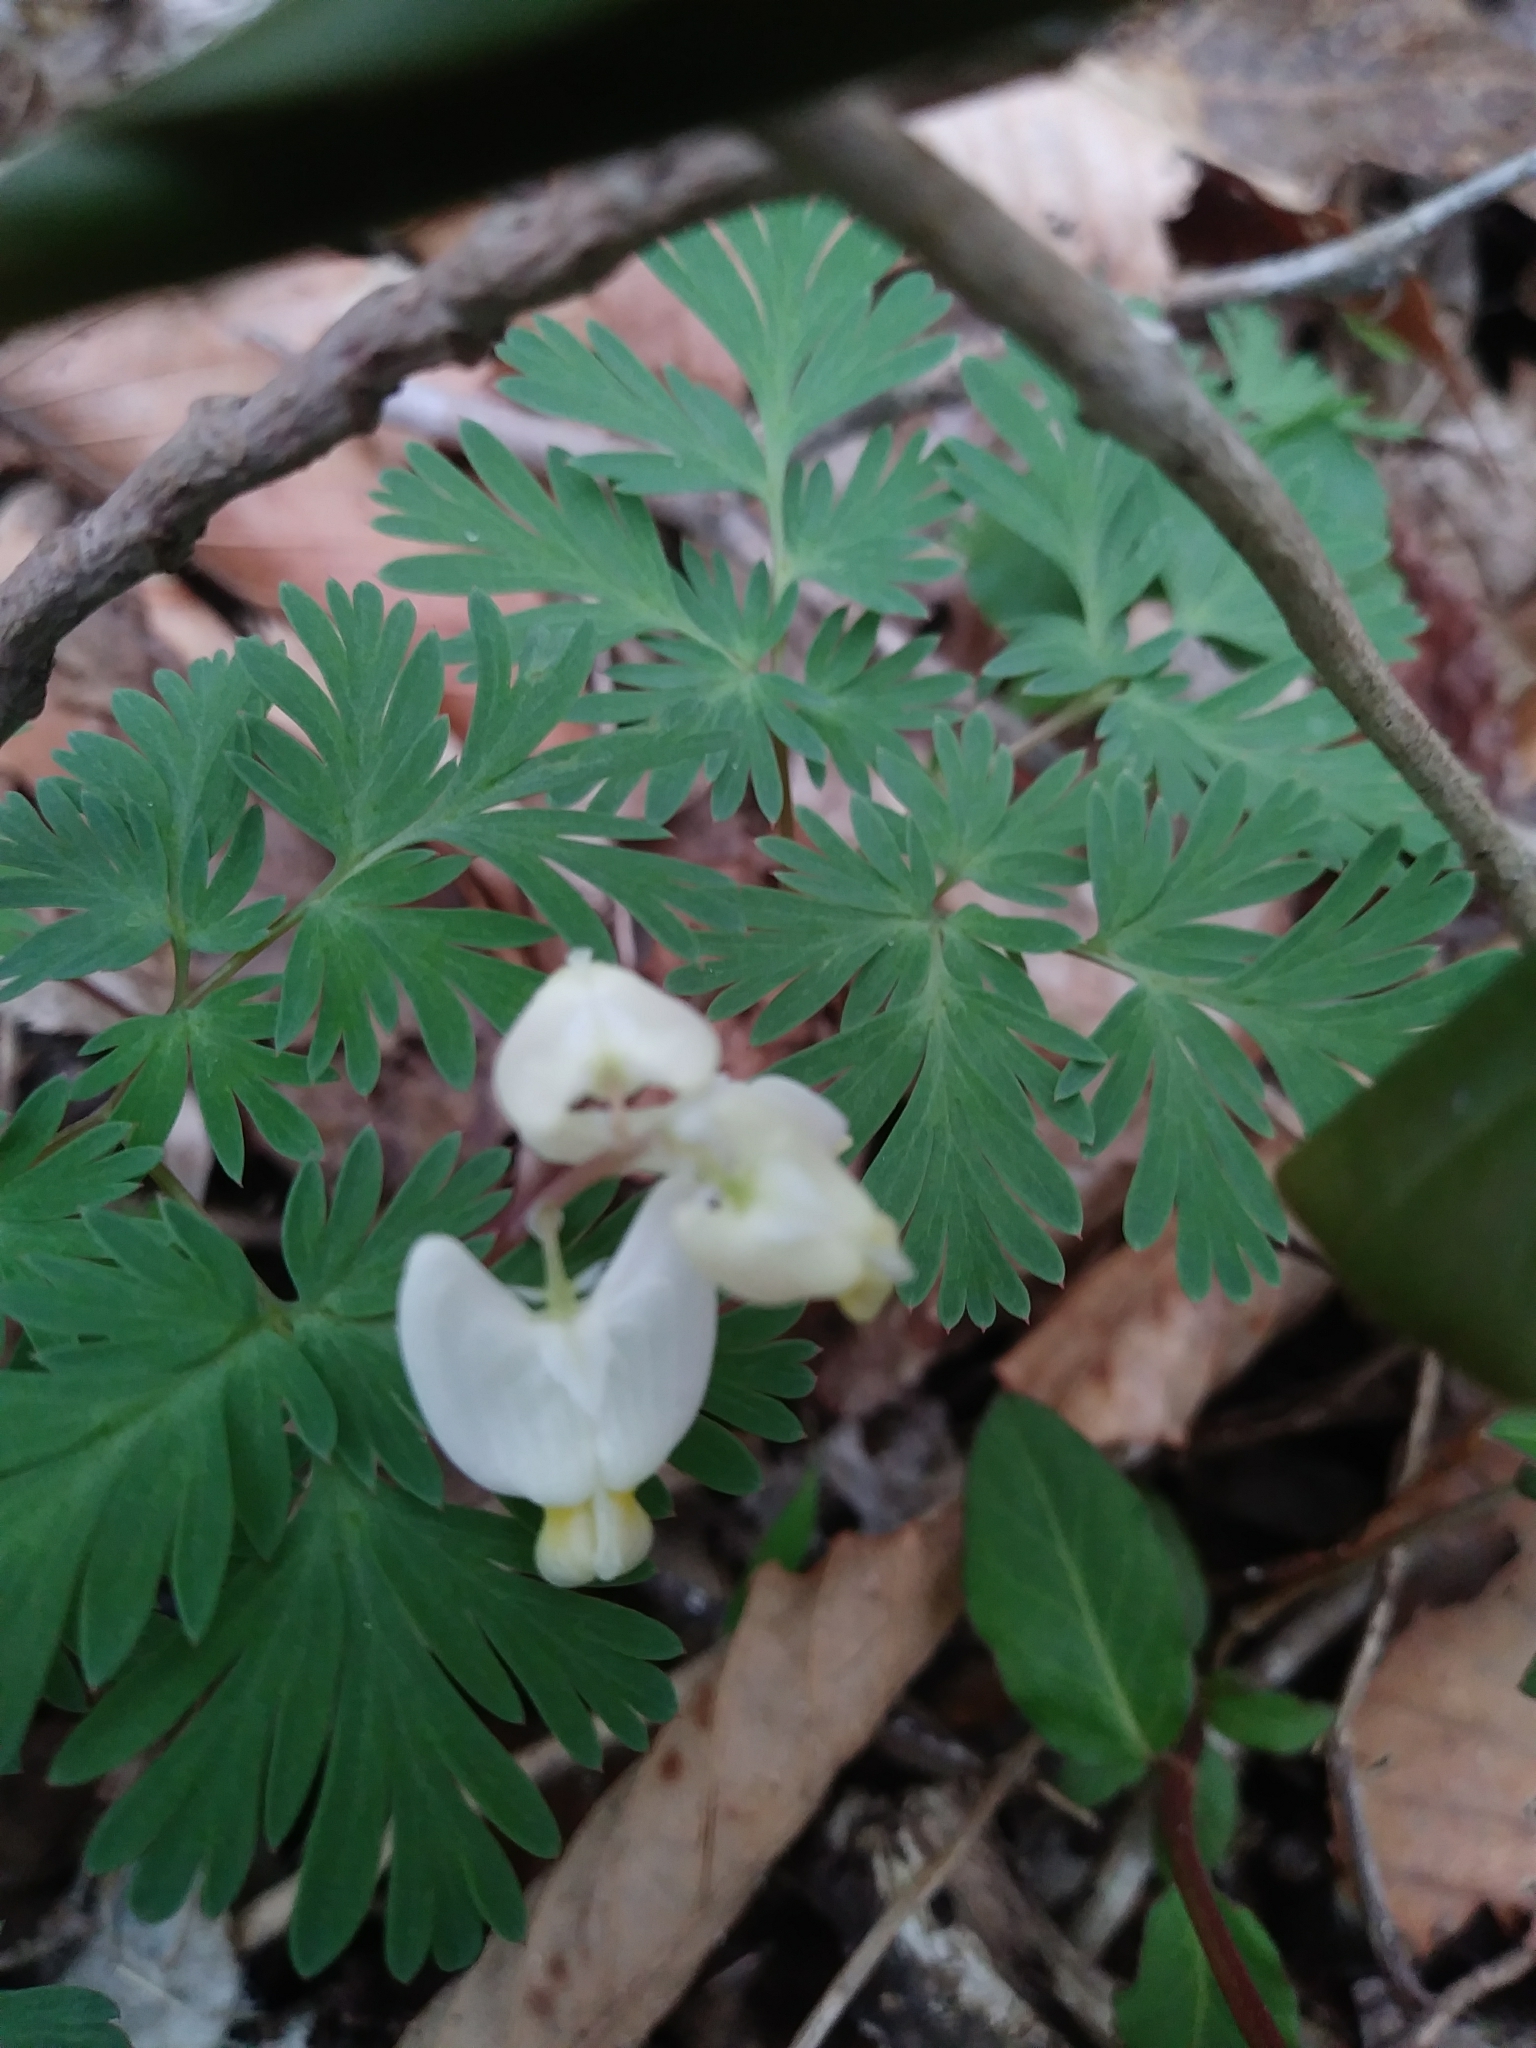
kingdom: Plantae
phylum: Tracheophyta
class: Magnoliopsida
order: Ranunculales
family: Papaveraceae
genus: Dicentra
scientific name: Dicentra cucullaria
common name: Dutchman's breeches
